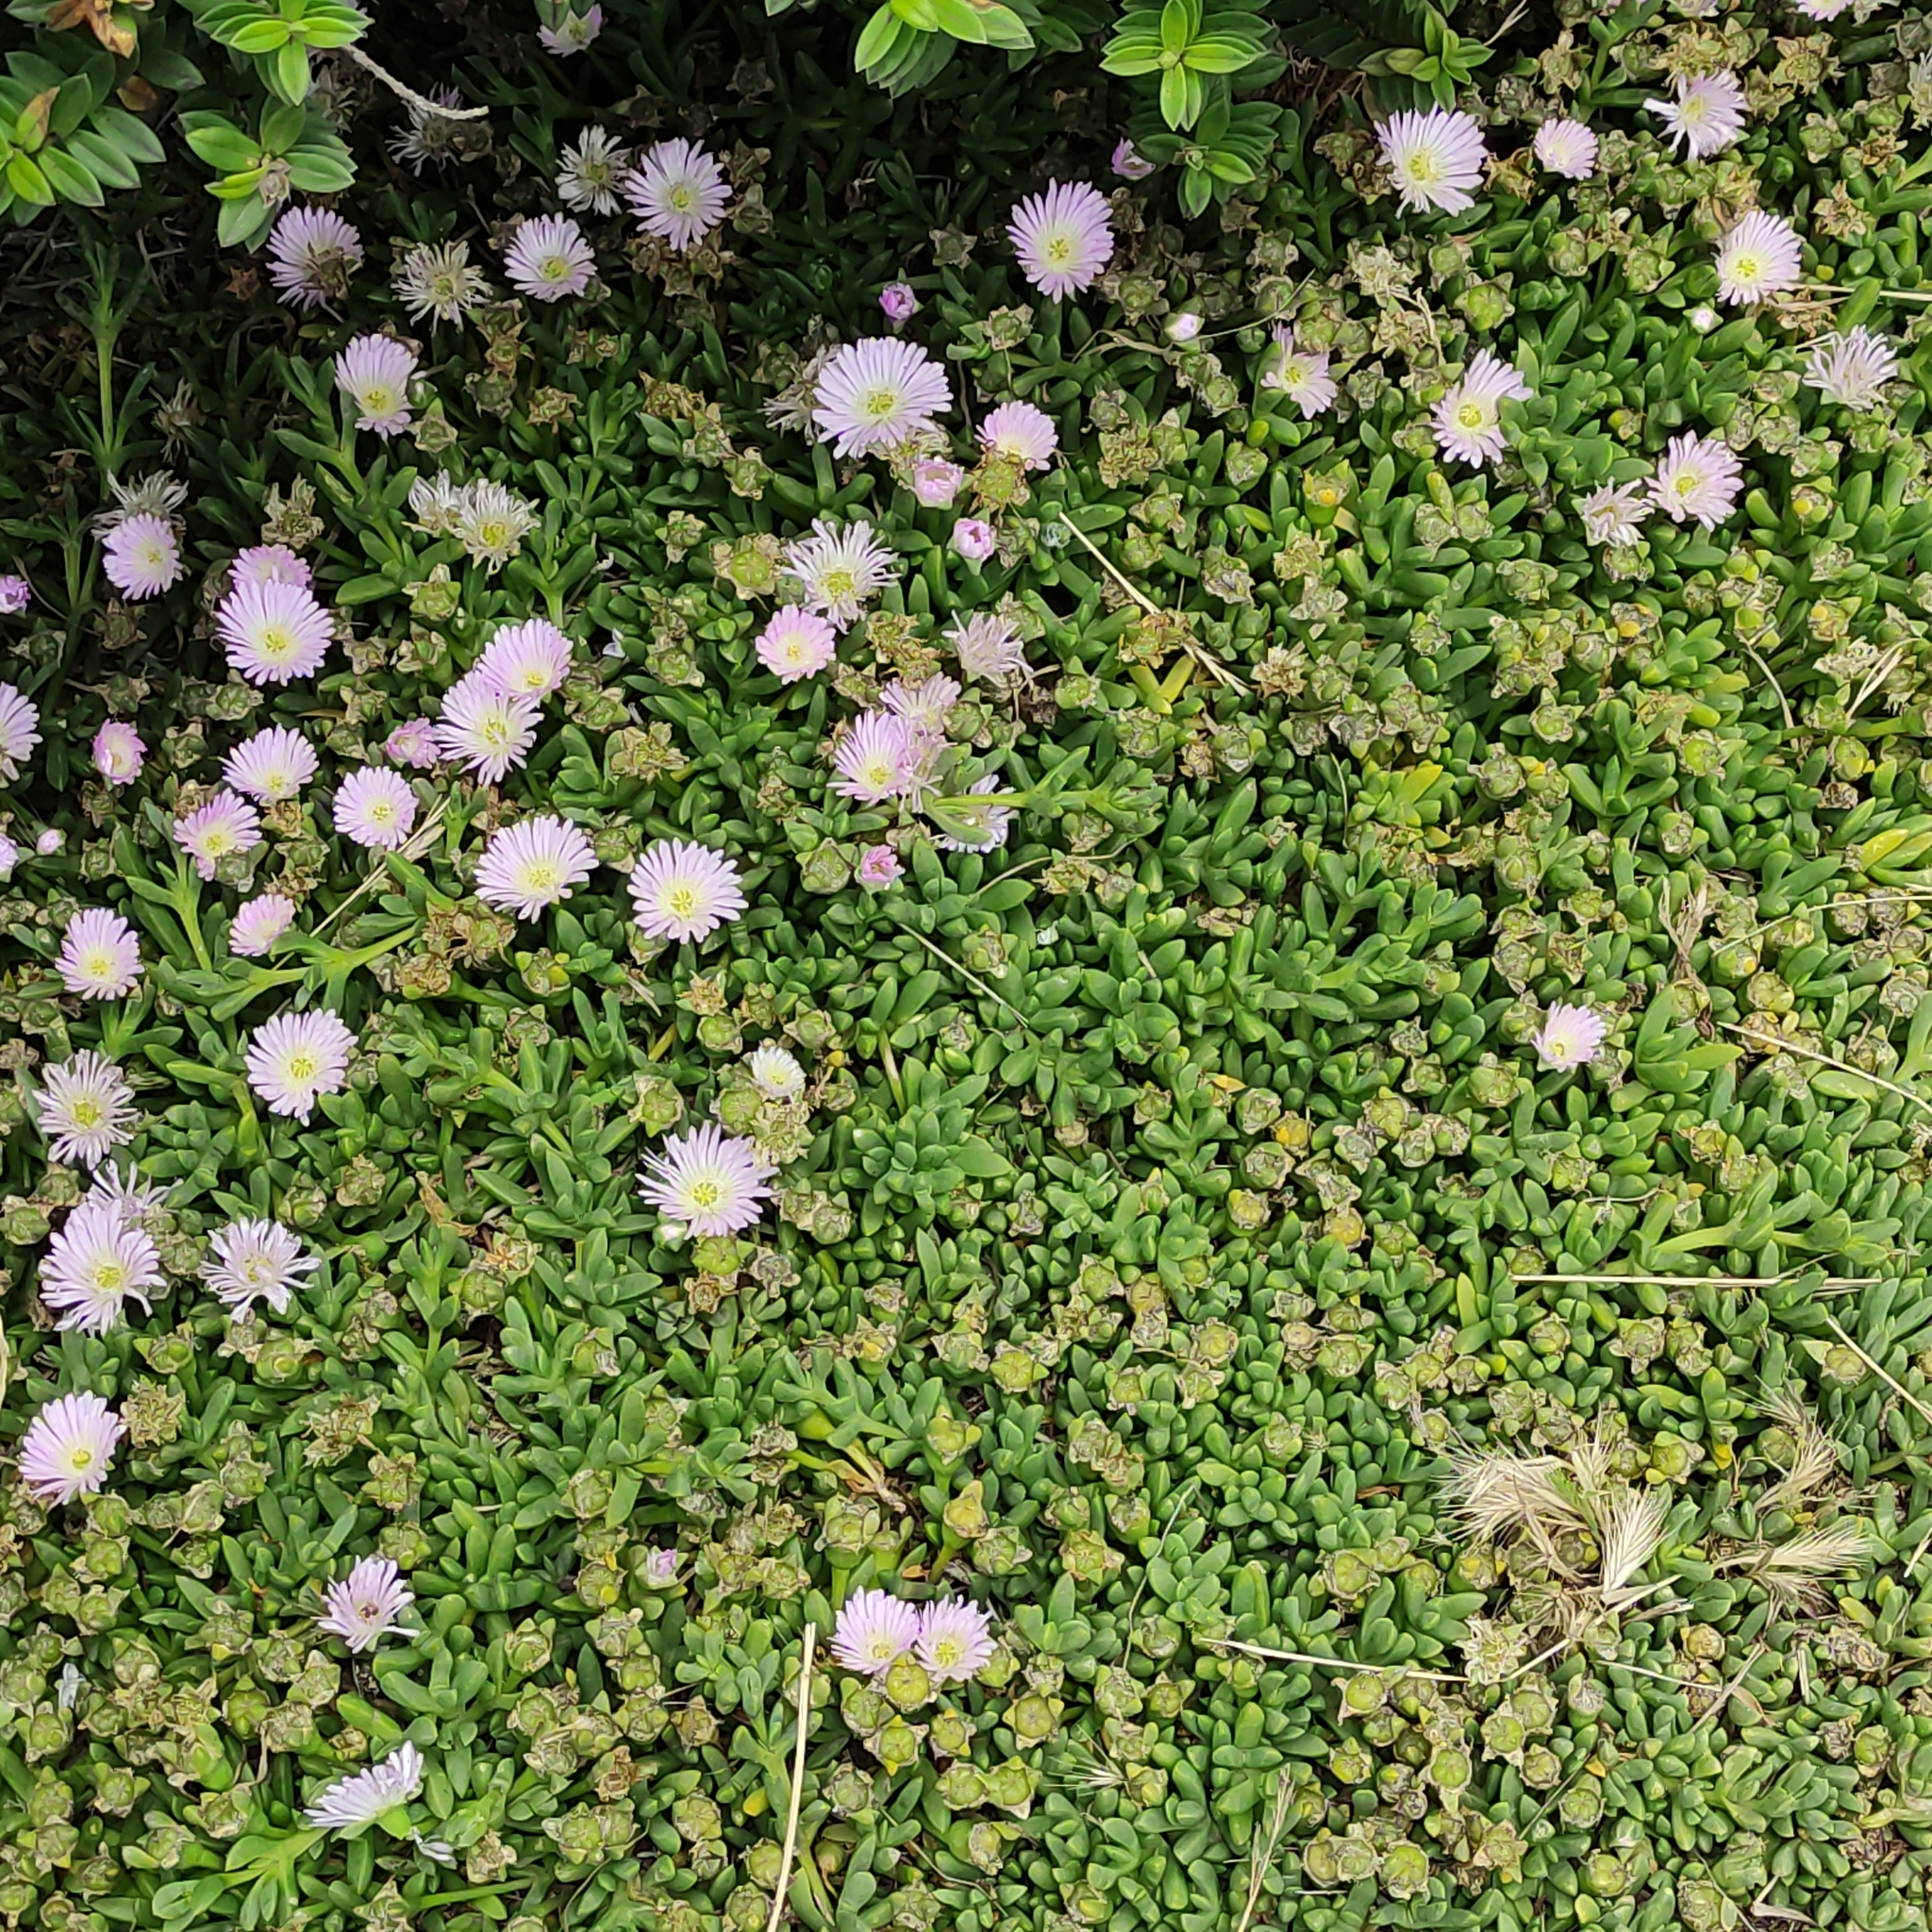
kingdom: Plantae
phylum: Tracheophyta
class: Magnoliopsida
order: Caryophyllales
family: Aizoaceae
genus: Disphyma
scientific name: Disphyma australe
